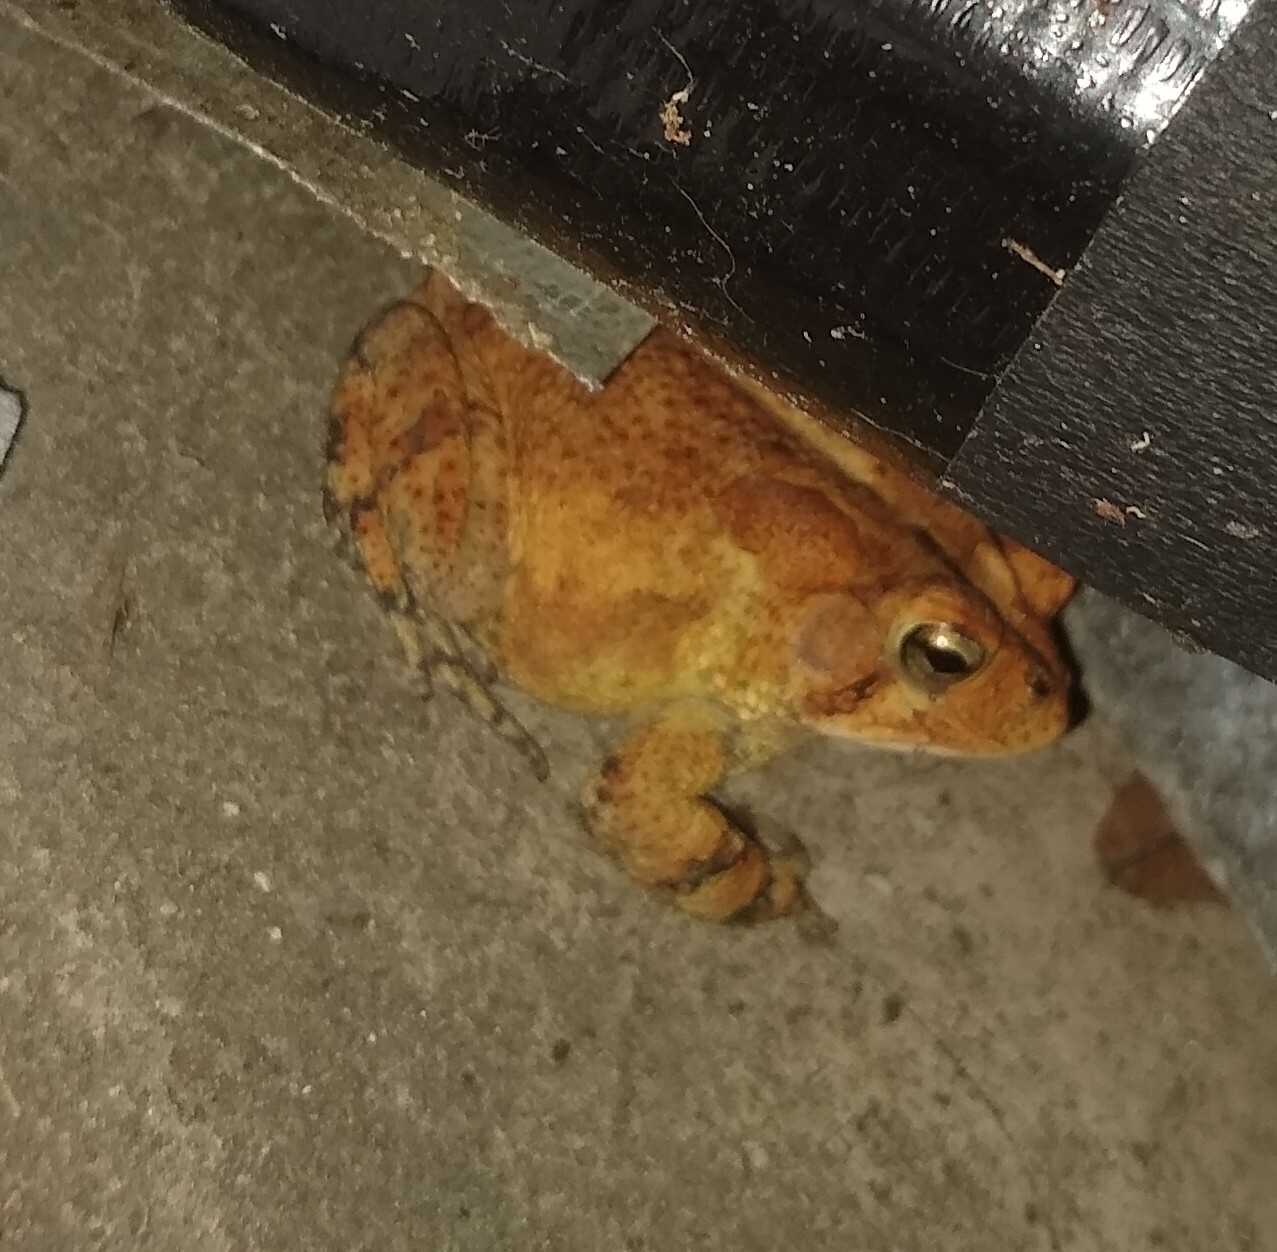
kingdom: Animalia
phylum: Chordata
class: Amphibia
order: Anura
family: Bufonidae
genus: Anaxyrus
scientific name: Anaxyrus terrestris
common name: Southern toad
